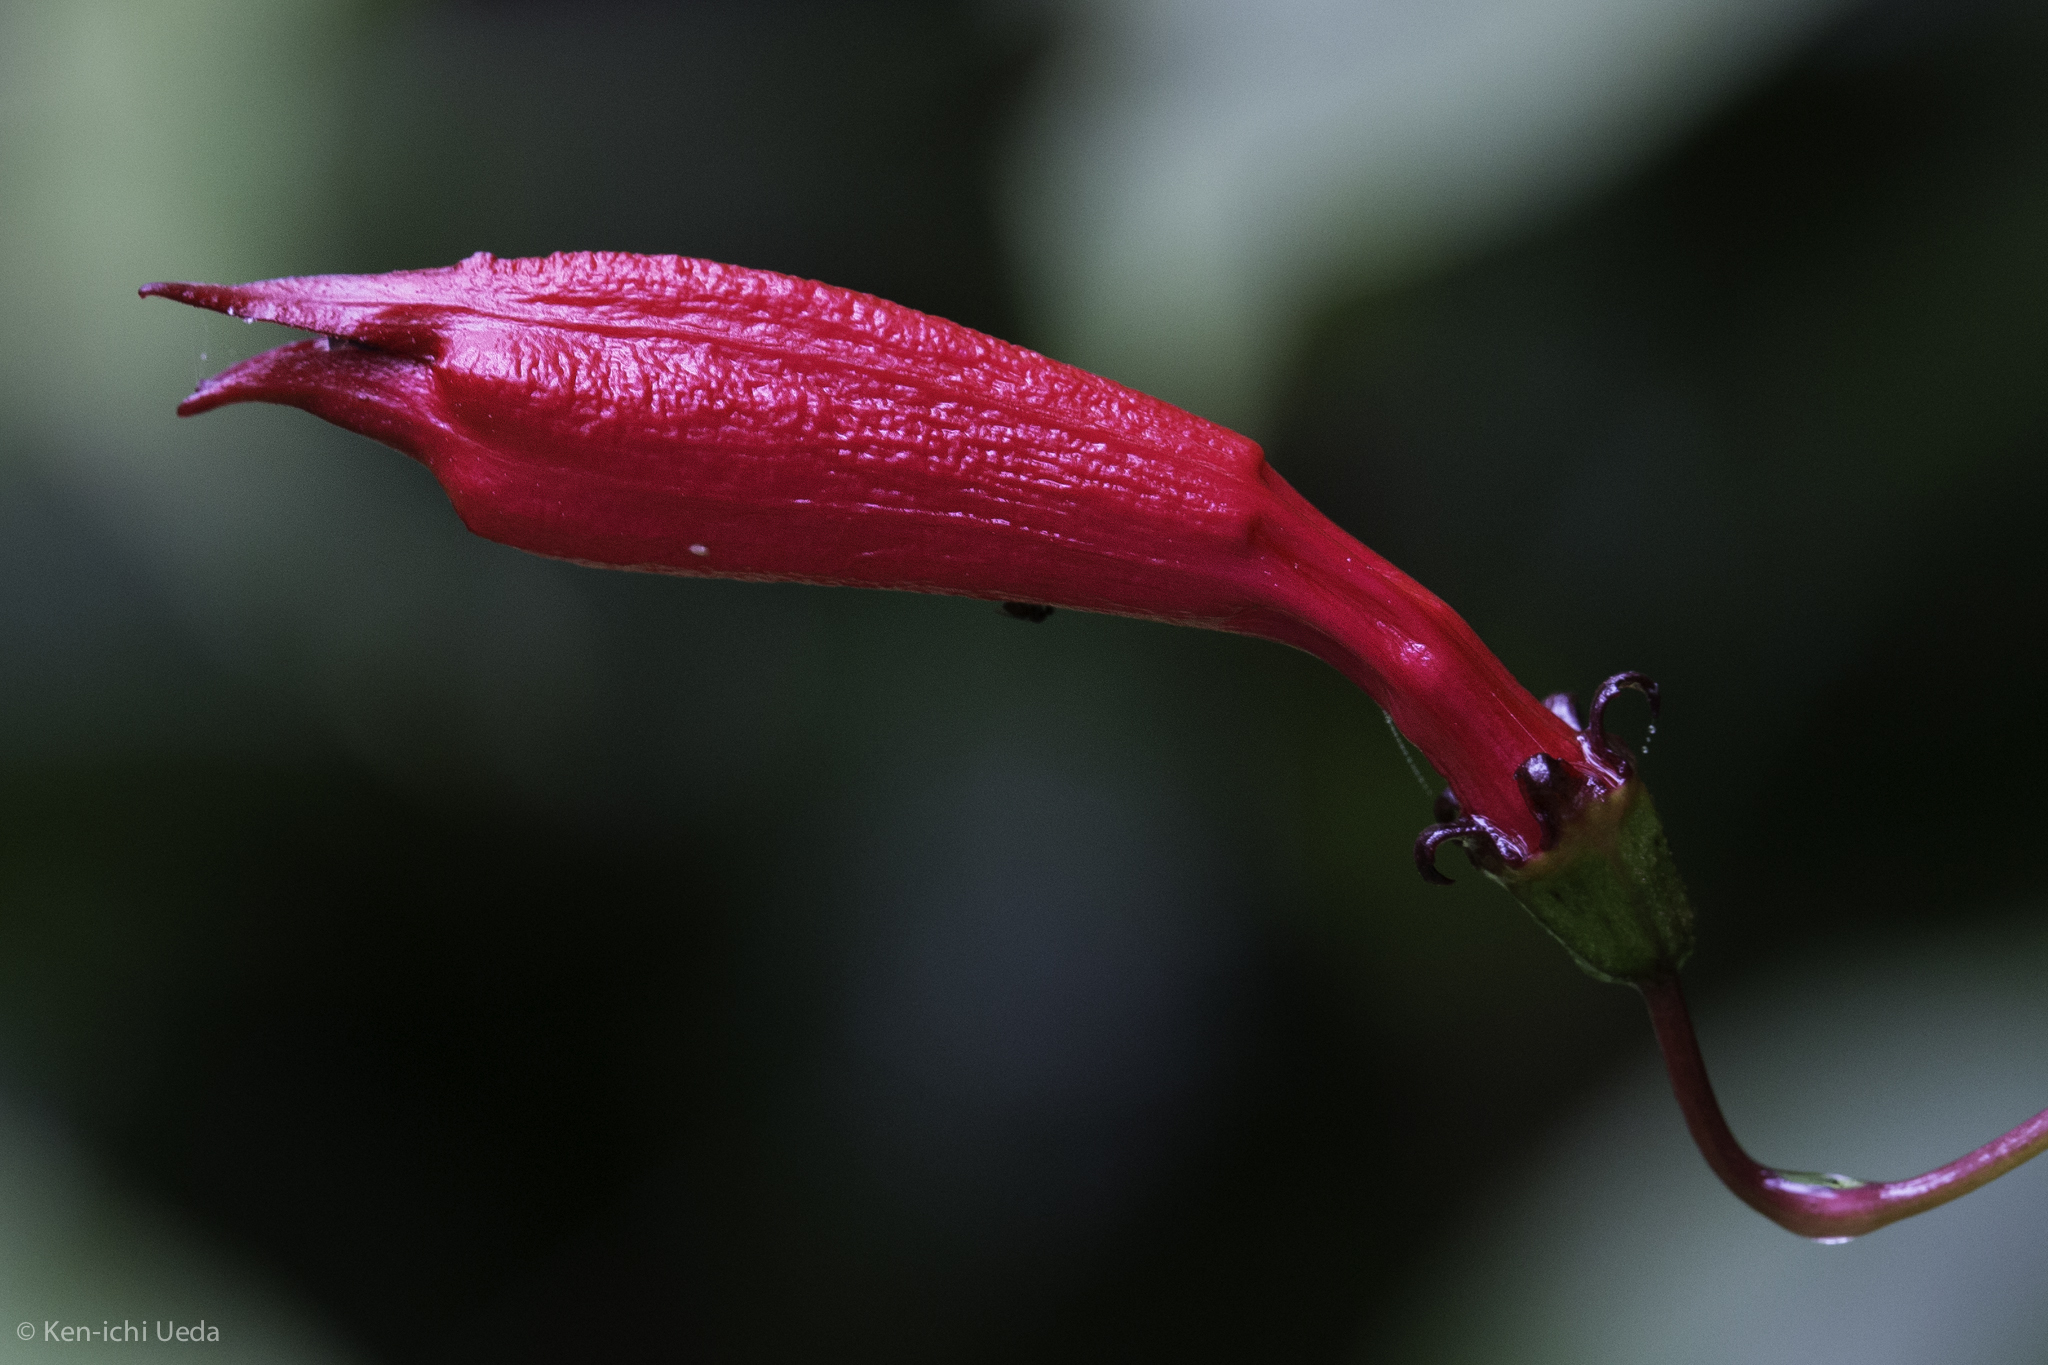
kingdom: Plantae
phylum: Tracheophyta
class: Magnoliopsida
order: Asterales
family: Campanulaceae
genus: Centropogon
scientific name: Centropogon costaricae
